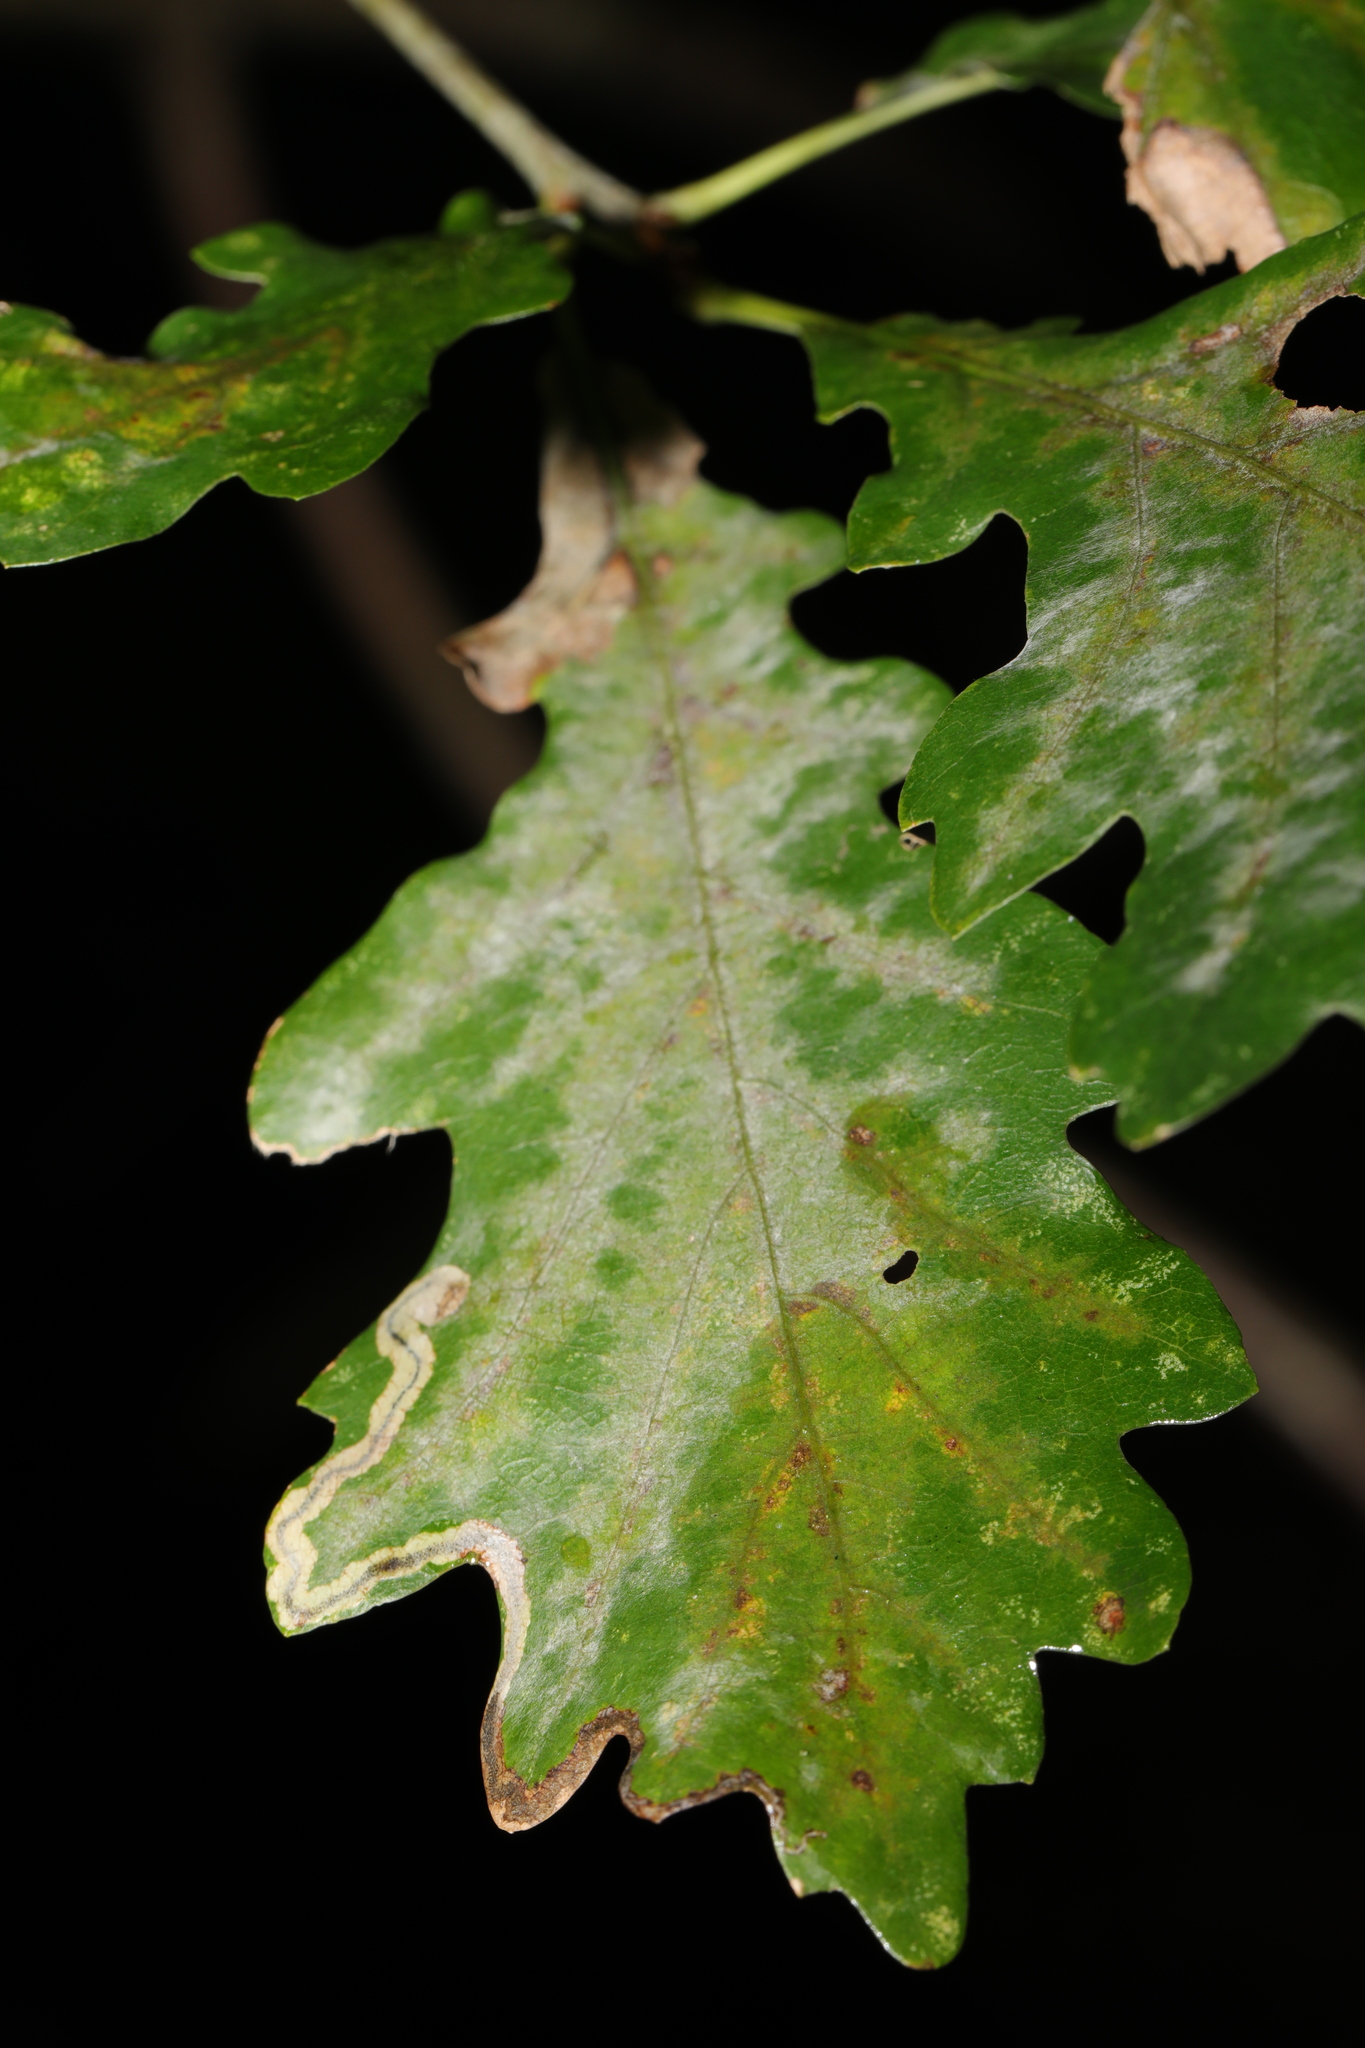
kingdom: Fungi
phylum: Ascomycota
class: Leotiomycetes
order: Helotiales
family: Erysiphaceae
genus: Erysiphe
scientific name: Erysiphe alphitoides
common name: Oak mildew
